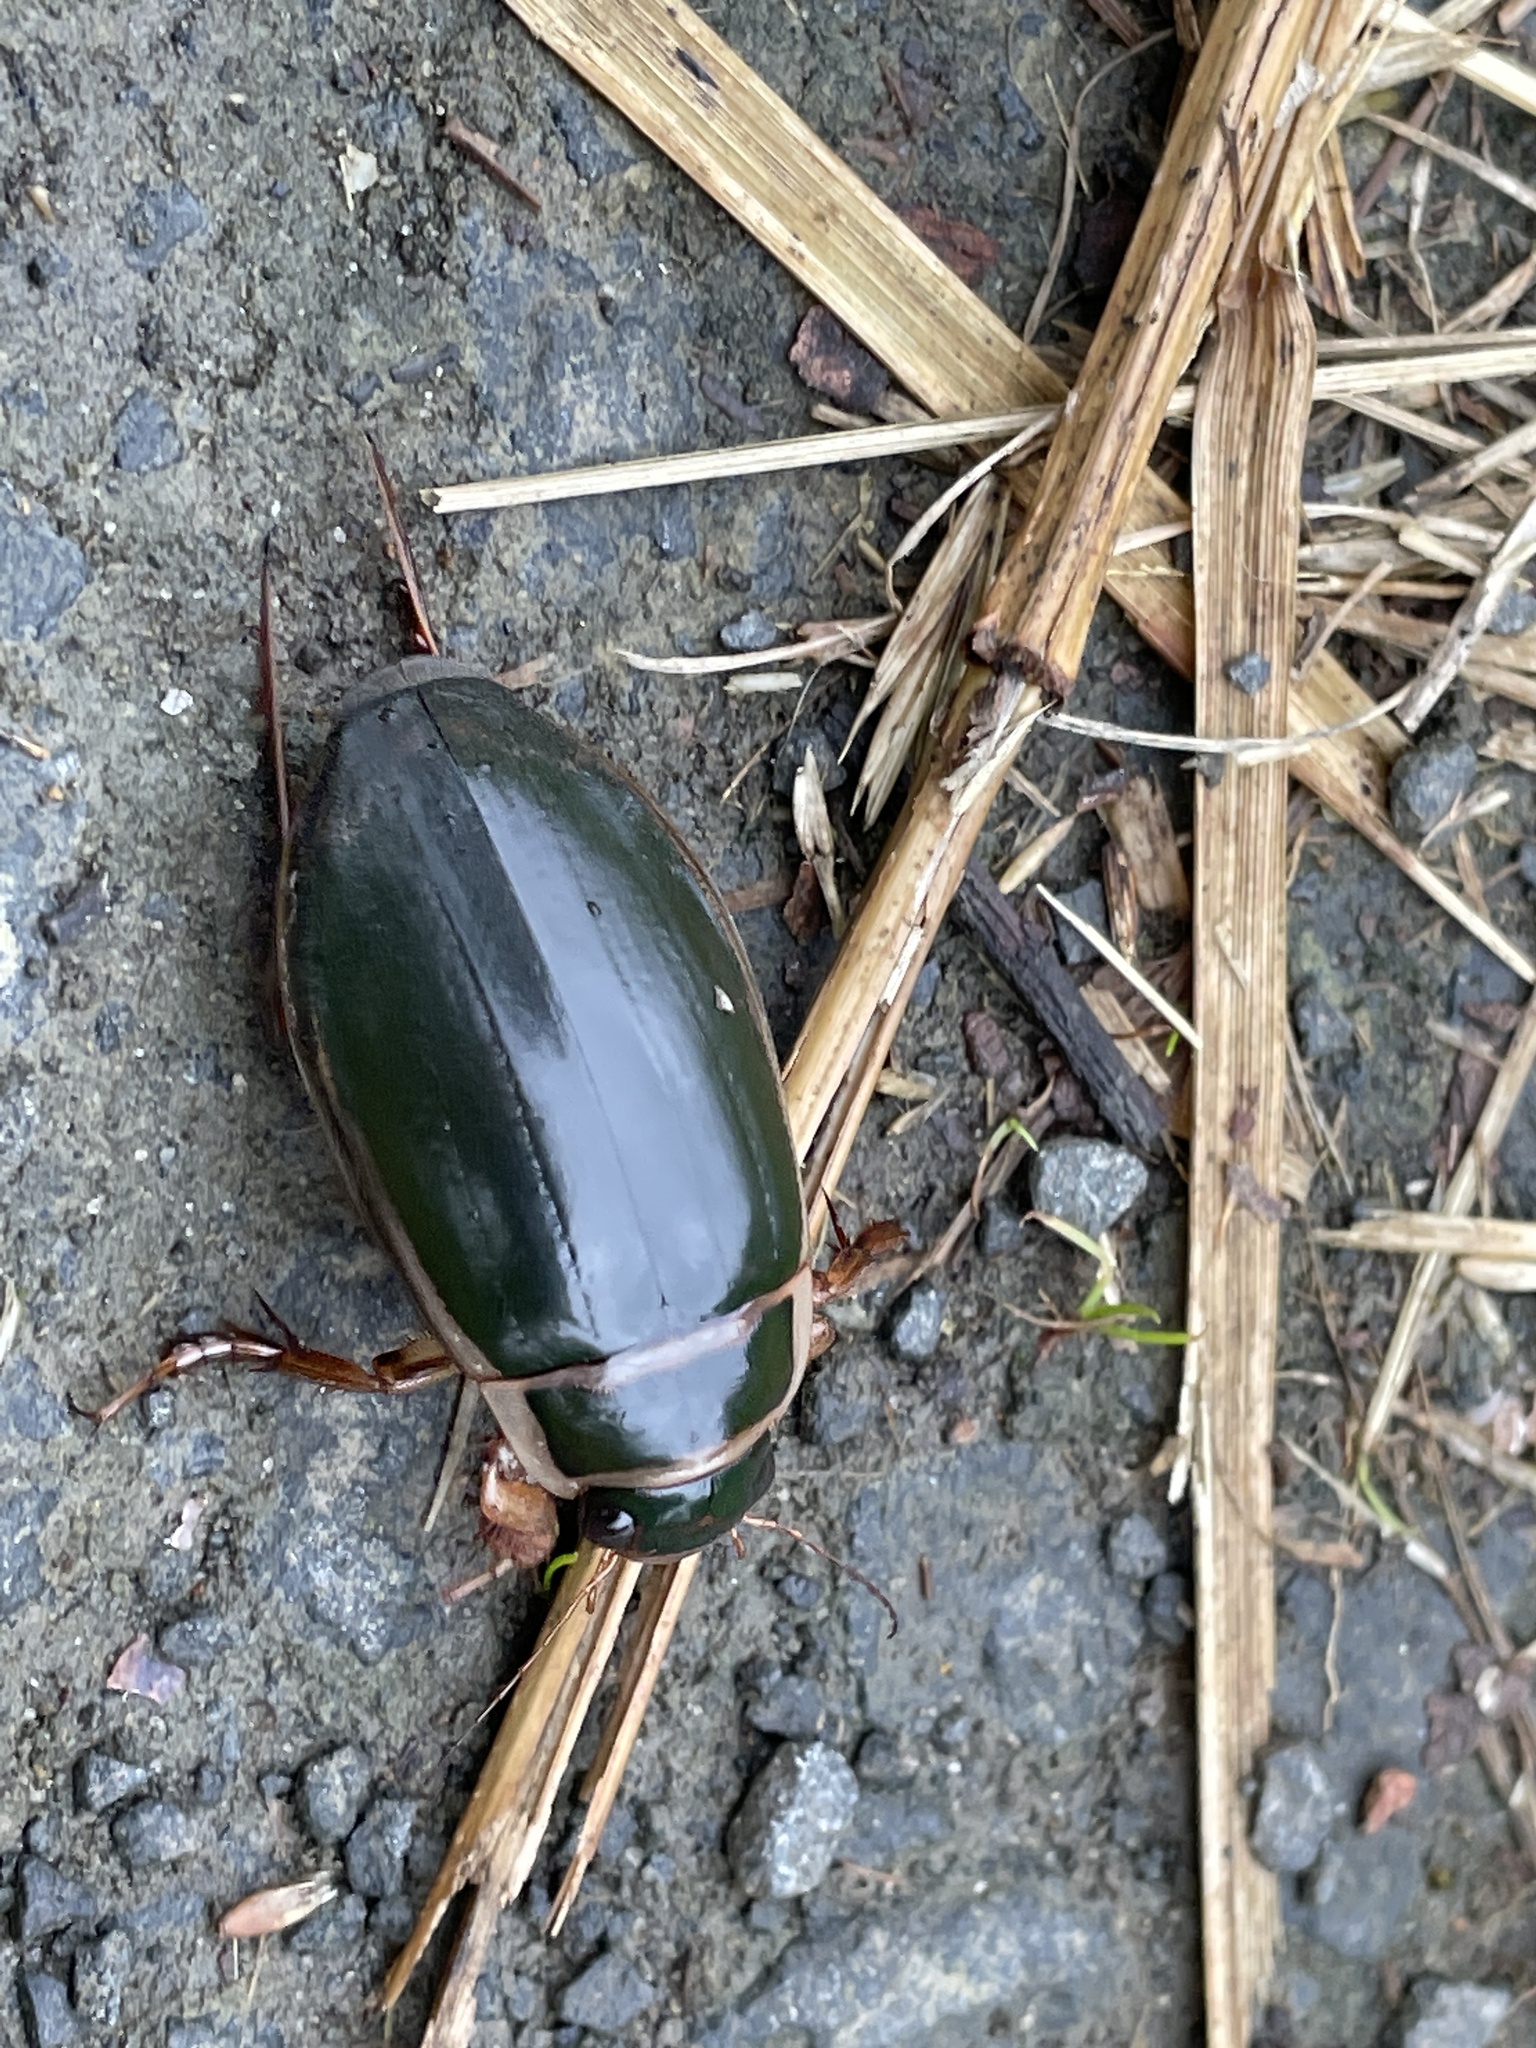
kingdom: Animalia
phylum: Arthropoda
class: Insecta
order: Coleoptera
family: Dytiscidae
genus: Dytiscus
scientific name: Dytiscus marginalis
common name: Great water beetle
